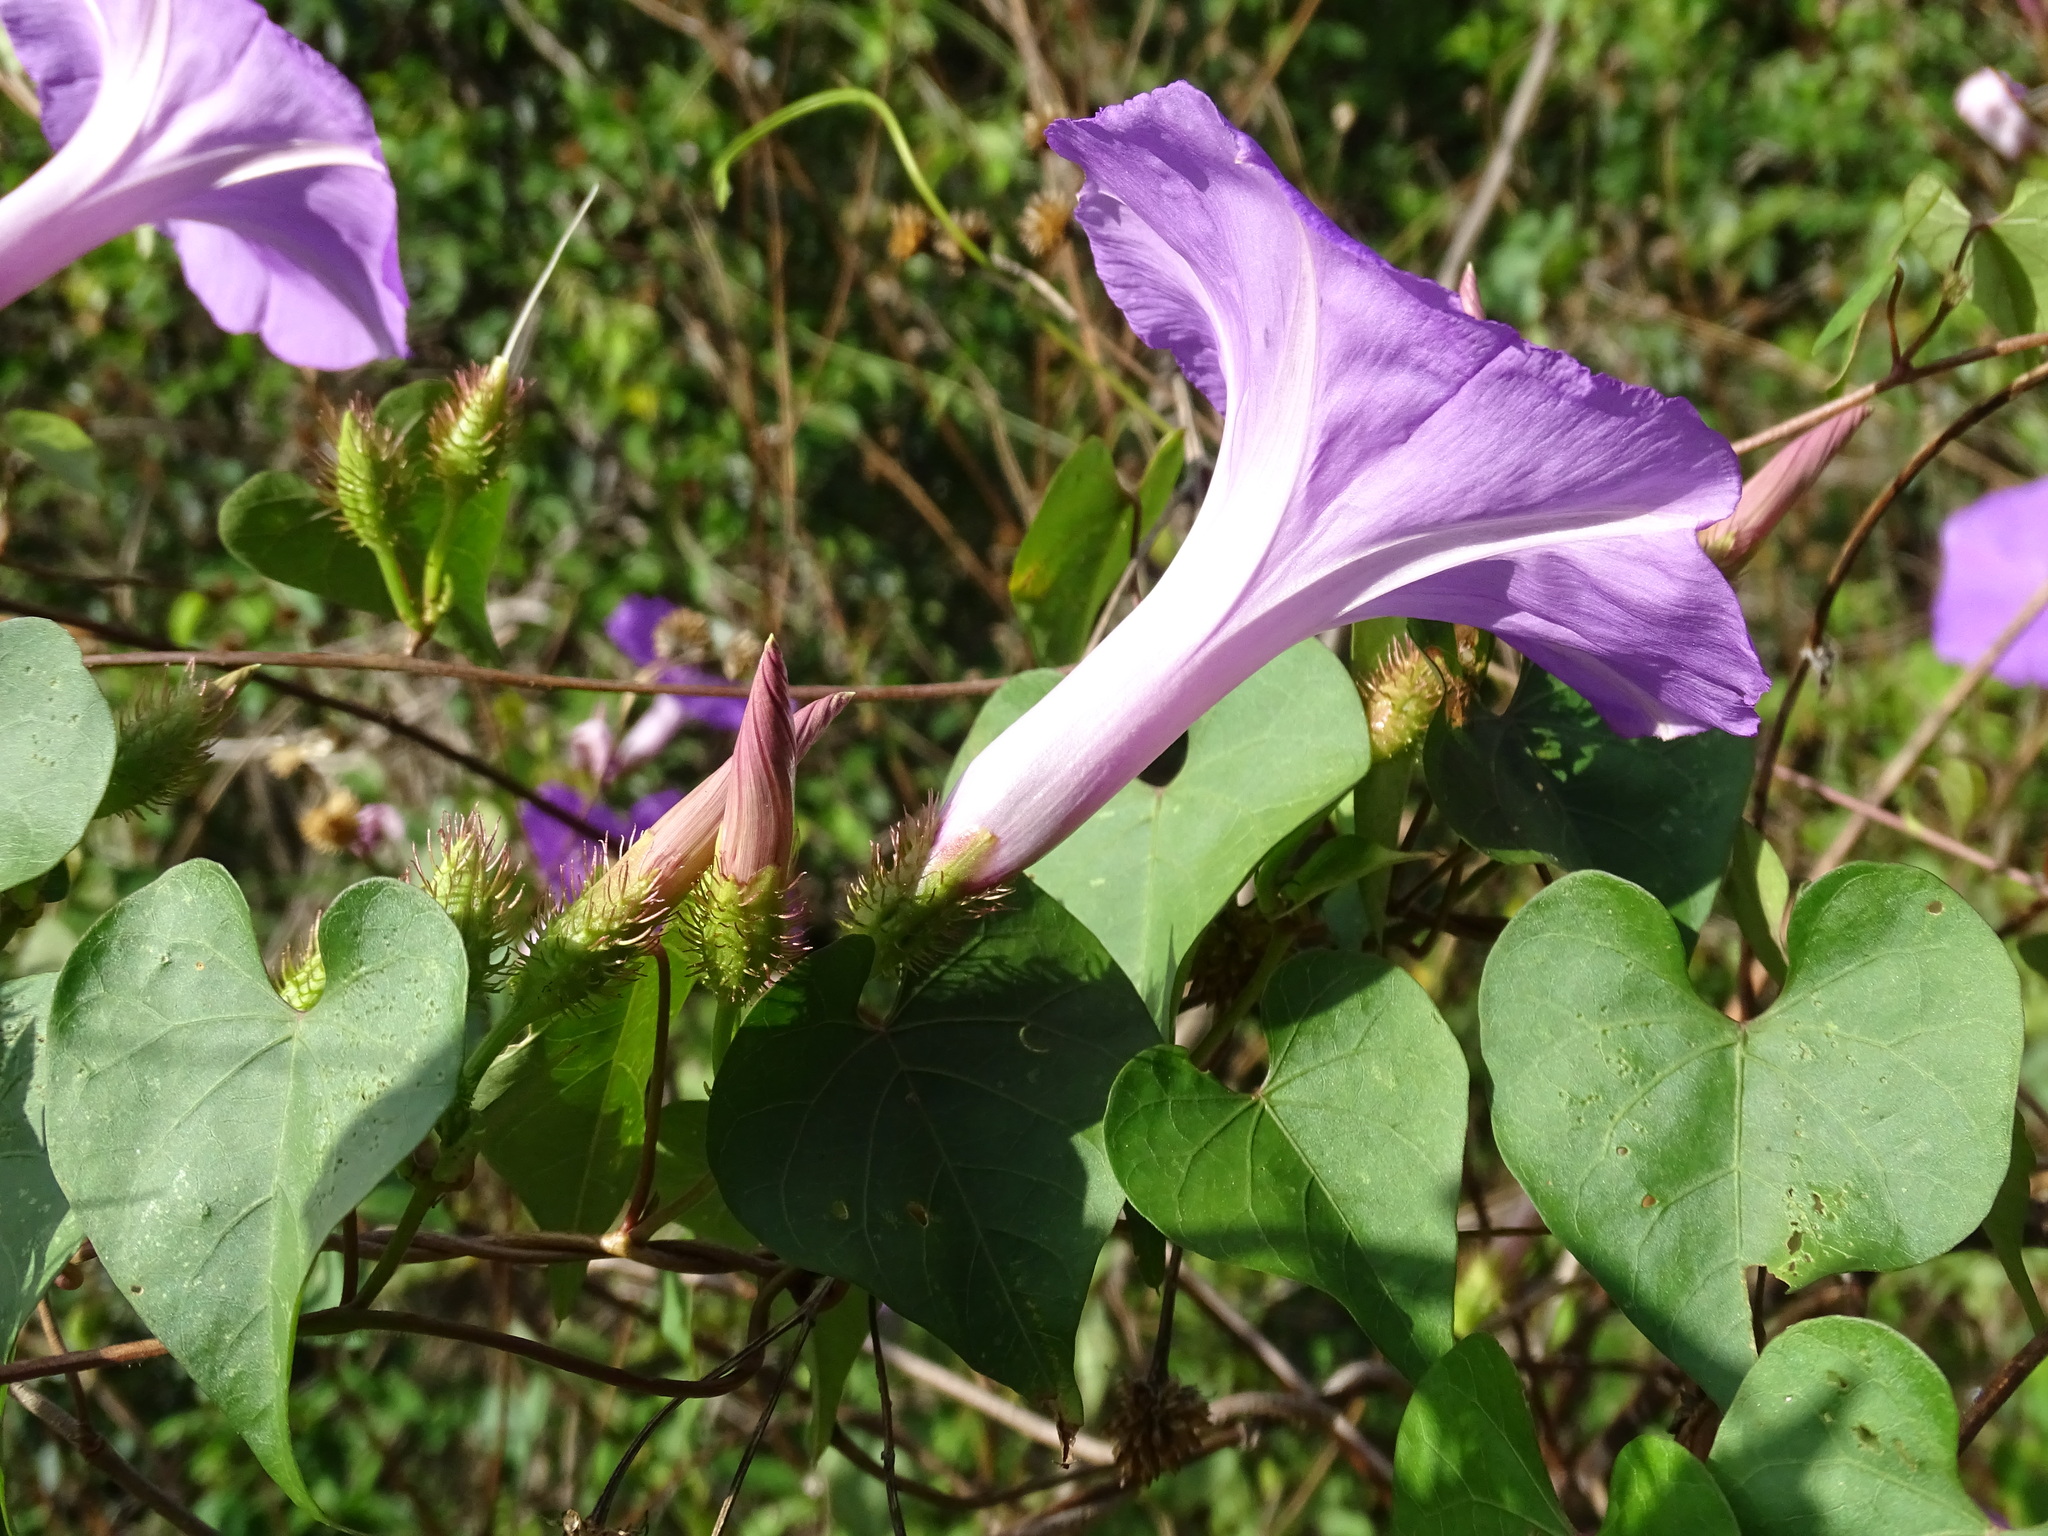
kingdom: Plantae
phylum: Tracheophyta
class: Magnoliopsida
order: Solanales
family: Convolvulaceae
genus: Ipomoea
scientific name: Ipomoea crinicalyx
